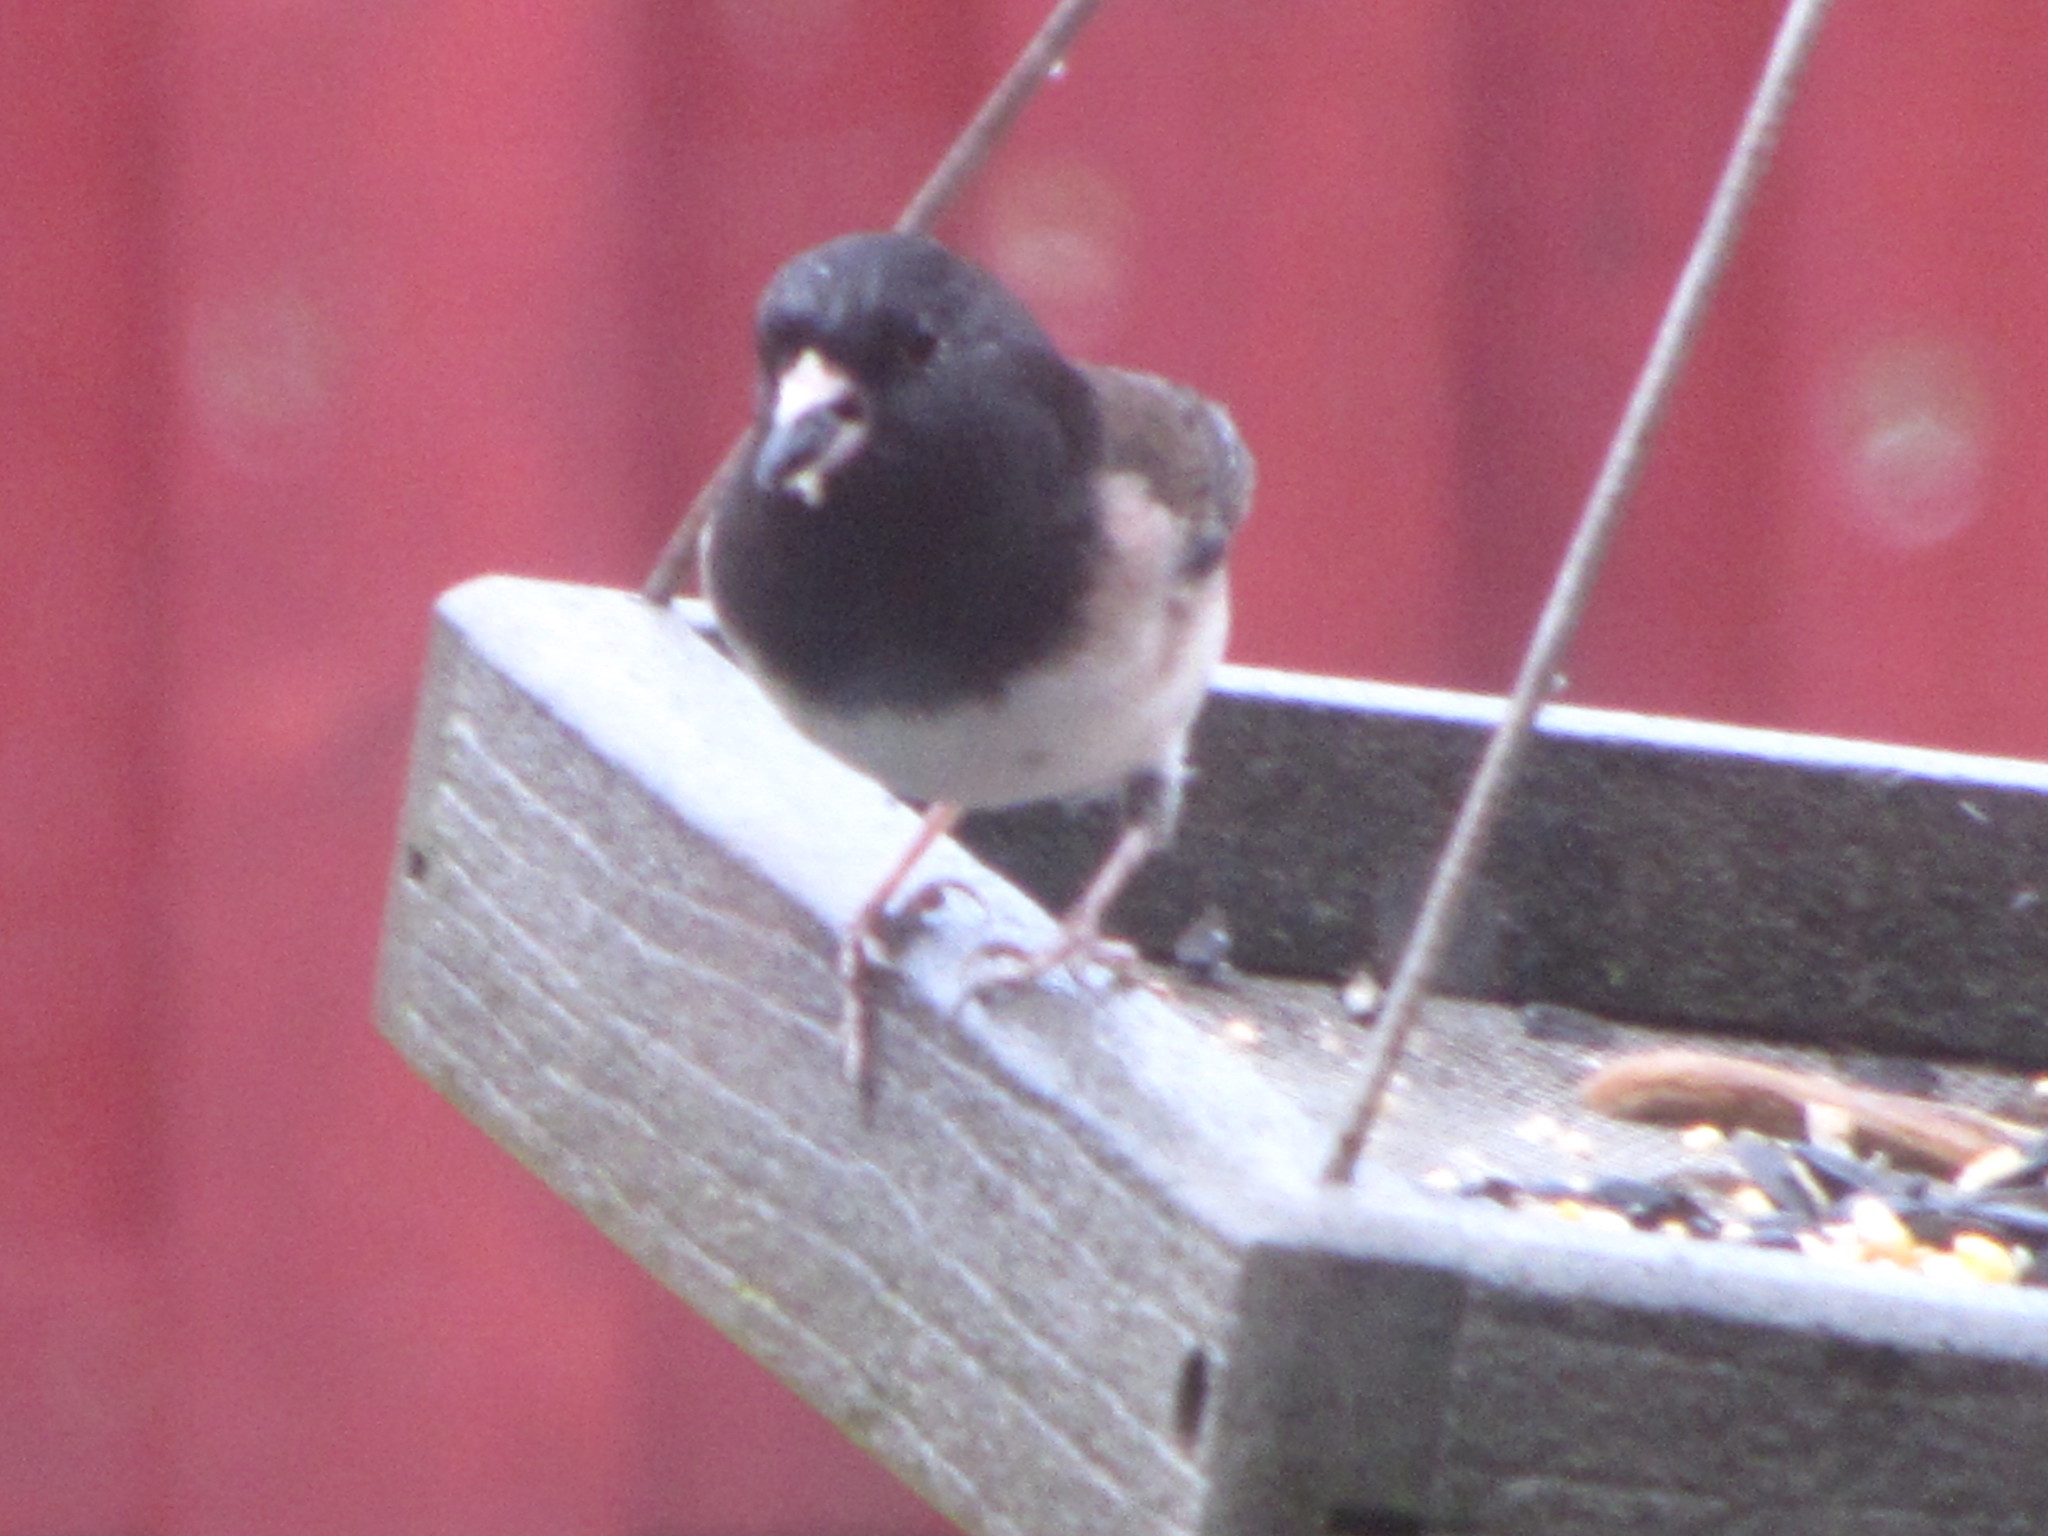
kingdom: Animalia
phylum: Chordata
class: Aves
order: Passeriformes
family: Passerellidae
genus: Junco
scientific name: Junco hyemalis
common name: Dark-eyed junco
